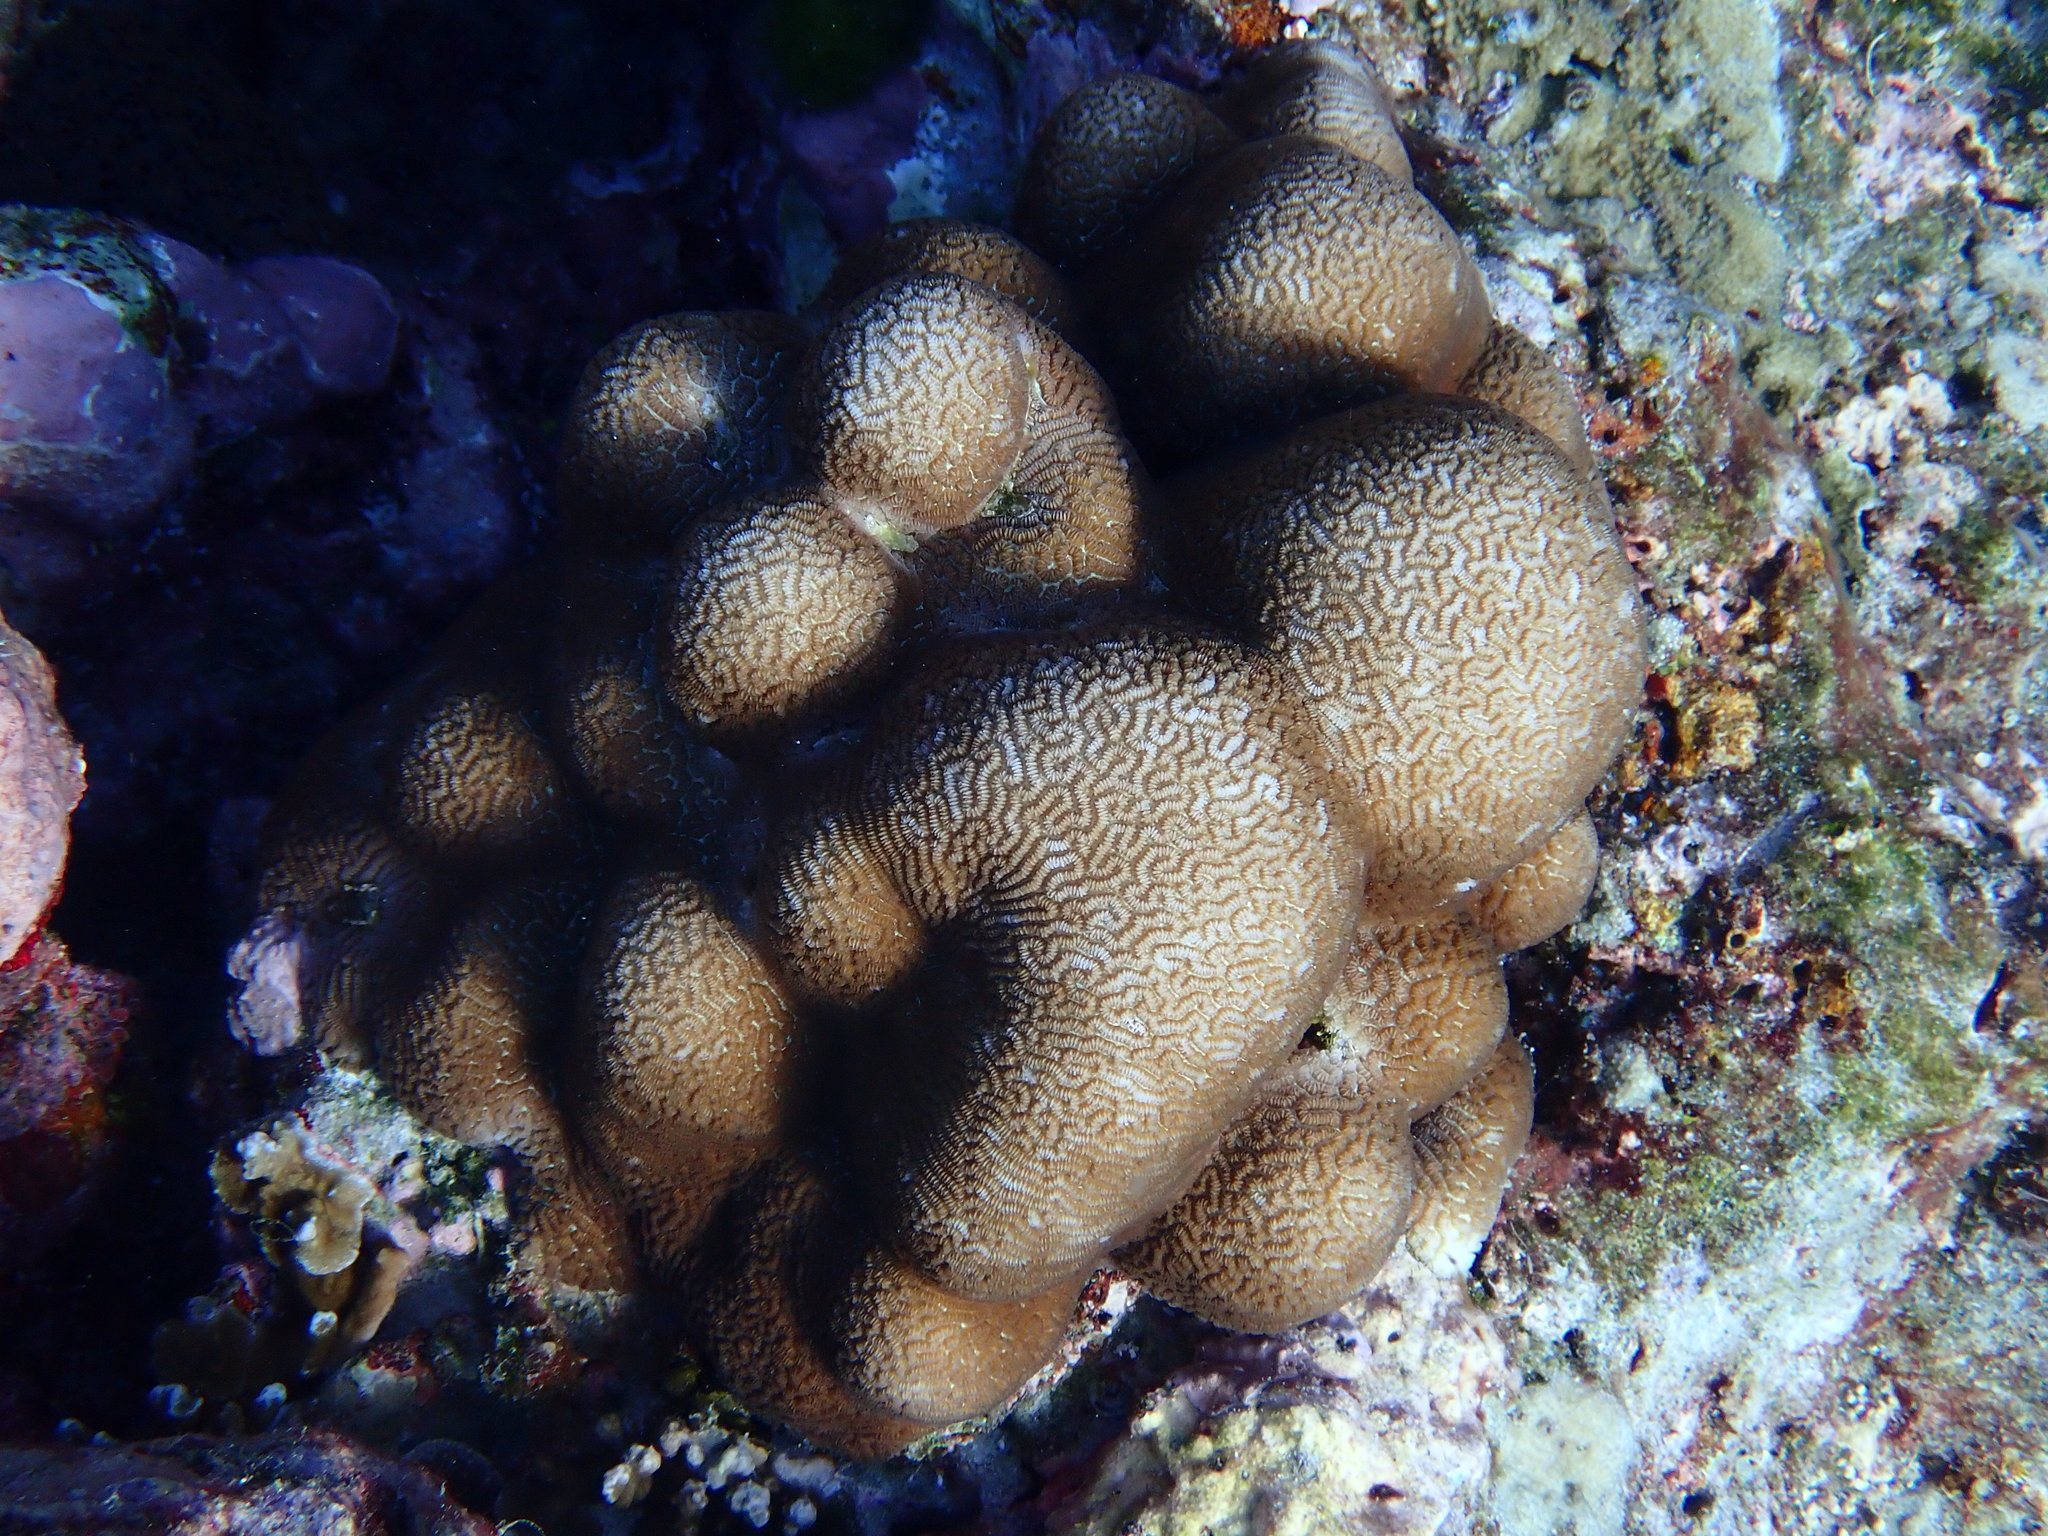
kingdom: Animalia
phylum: Cnidaria
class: Anthozoa
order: Scleractinia
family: Merulinidae
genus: Leptoria
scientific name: Leptoria phrygia
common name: Least valley coral
